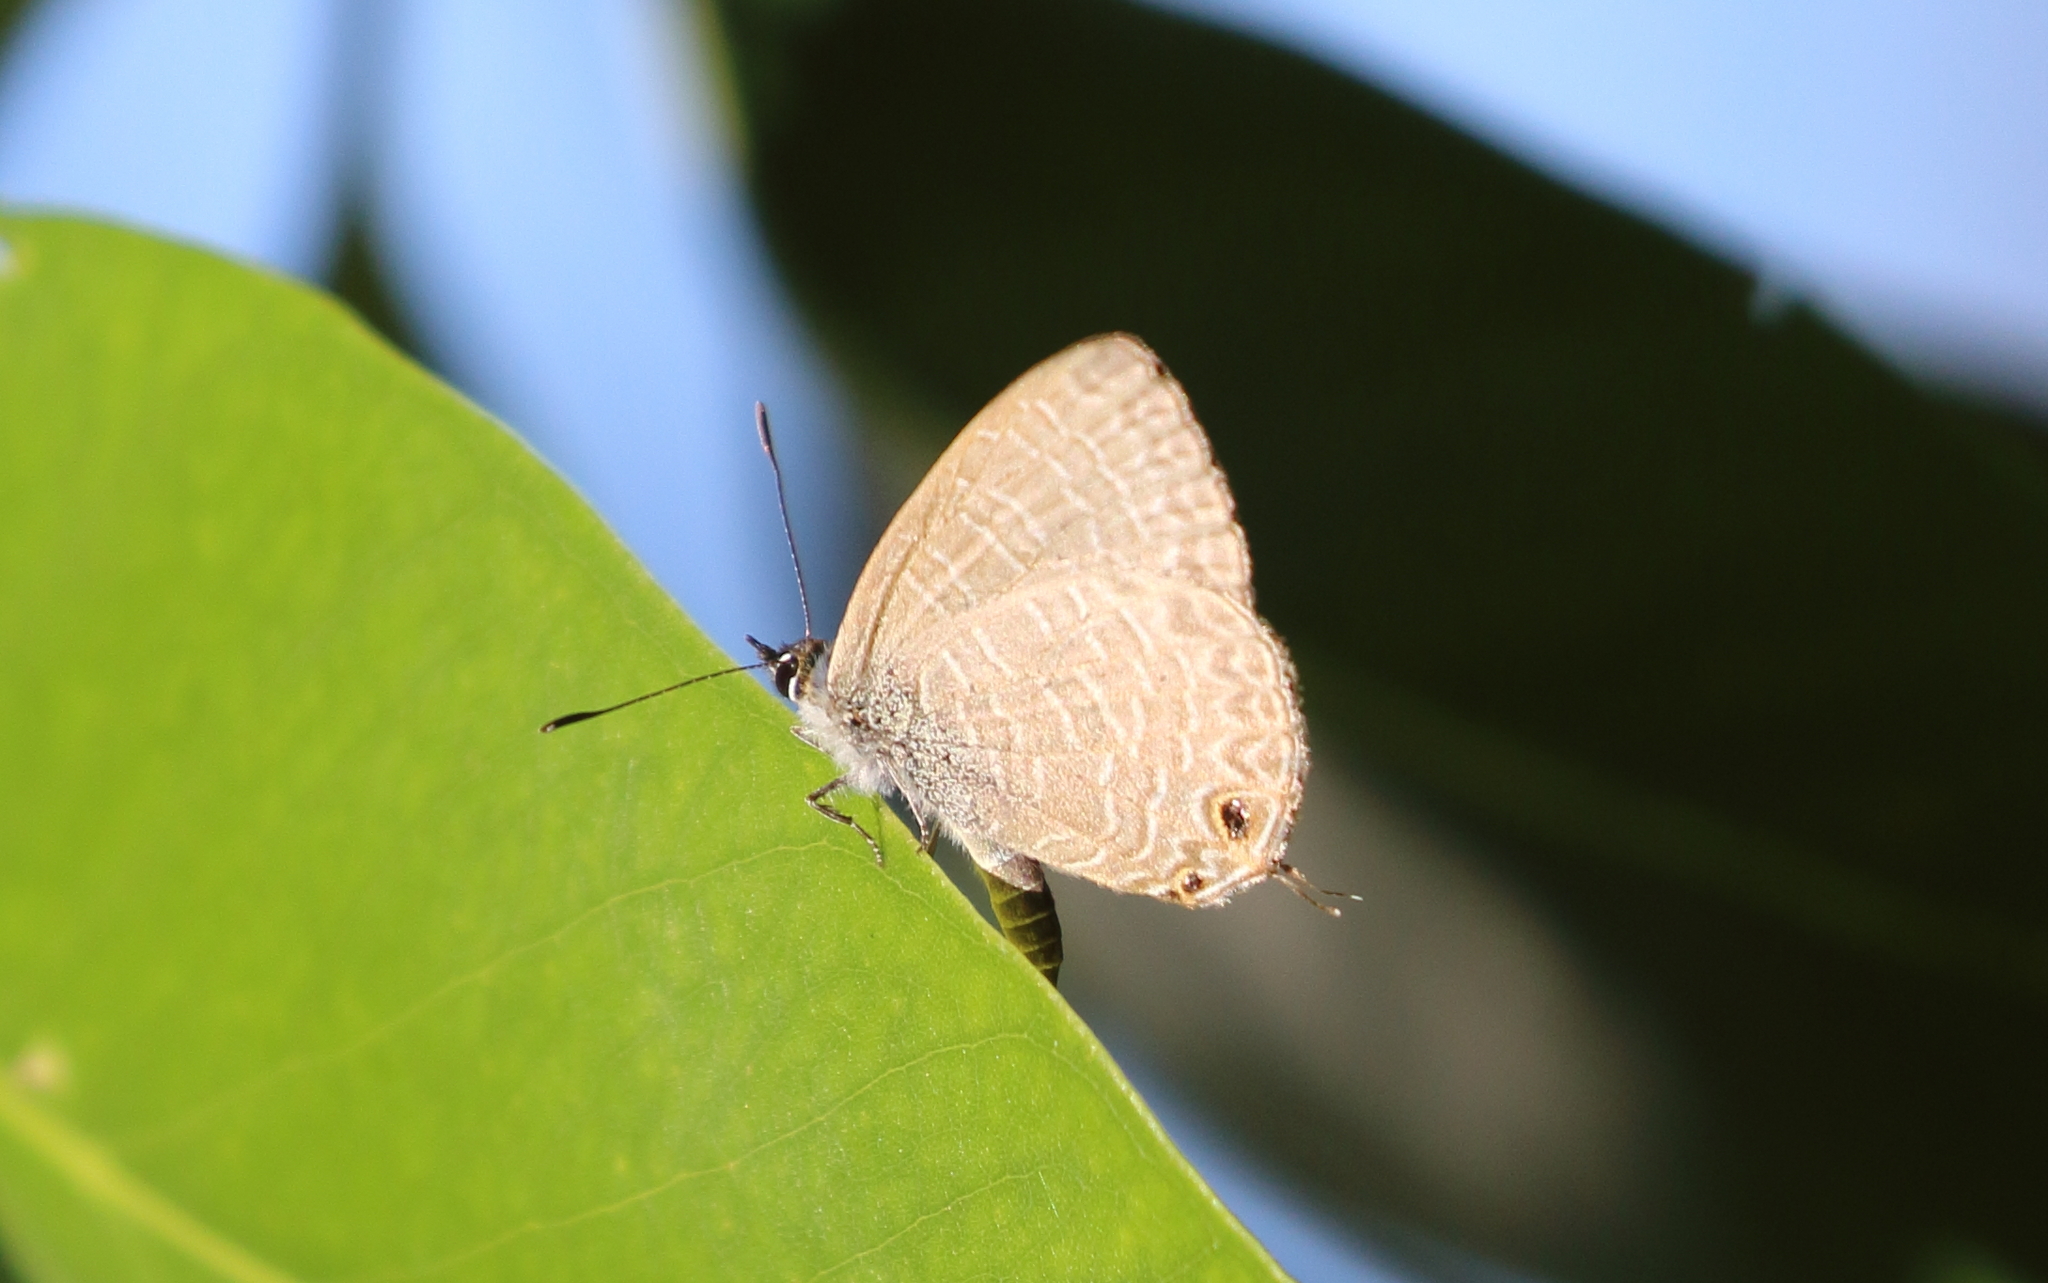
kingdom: Animalia
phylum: Arthropoda
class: Insecta
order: Lepidoptera
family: Lycaenidae
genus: Nacaduba
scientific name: Nacaduba berenice
